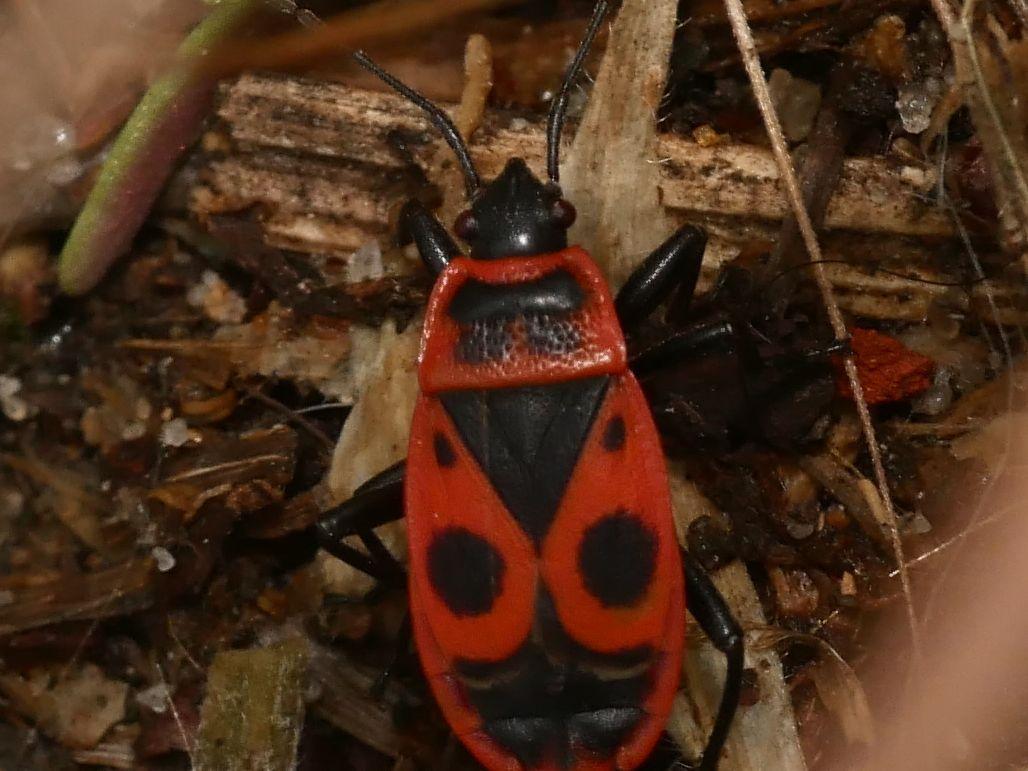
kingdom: Animalia
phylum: Arthropoda
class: Insecta
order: Hemiptera
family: Pyrrhocoridae
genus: Pyrrhocoris
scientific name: Pyrrhocoris apterus
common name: Firebug
